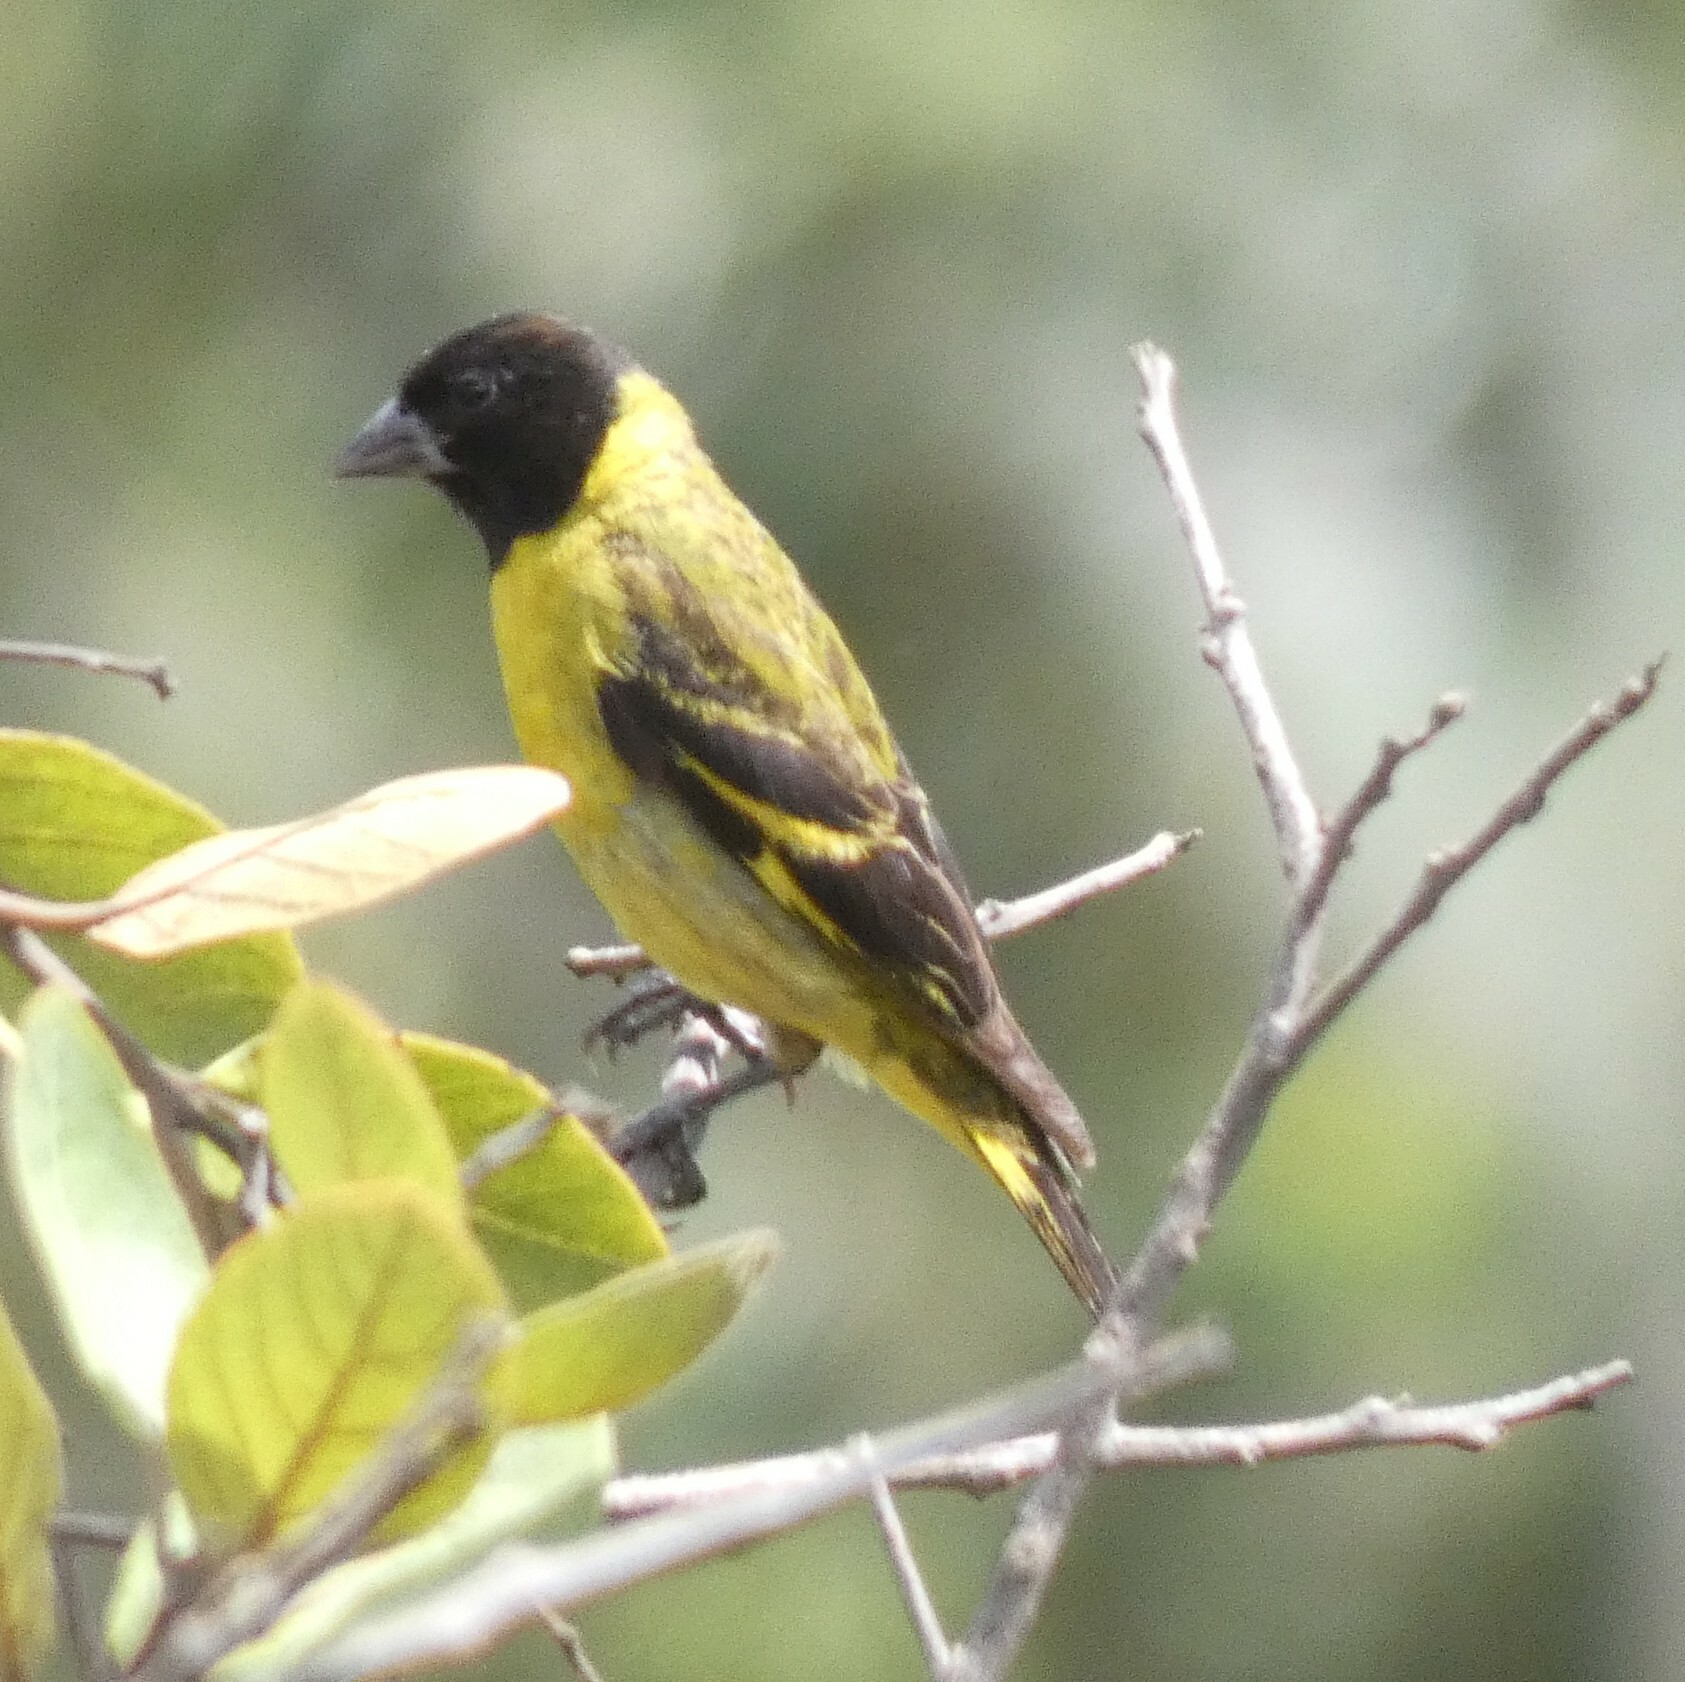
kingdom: Animalia
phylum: Chordata
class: Aves
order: Passeriformes
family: Fringillidae
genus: Spinus
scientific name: Spinus magellanicus
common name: Hooded siskin
